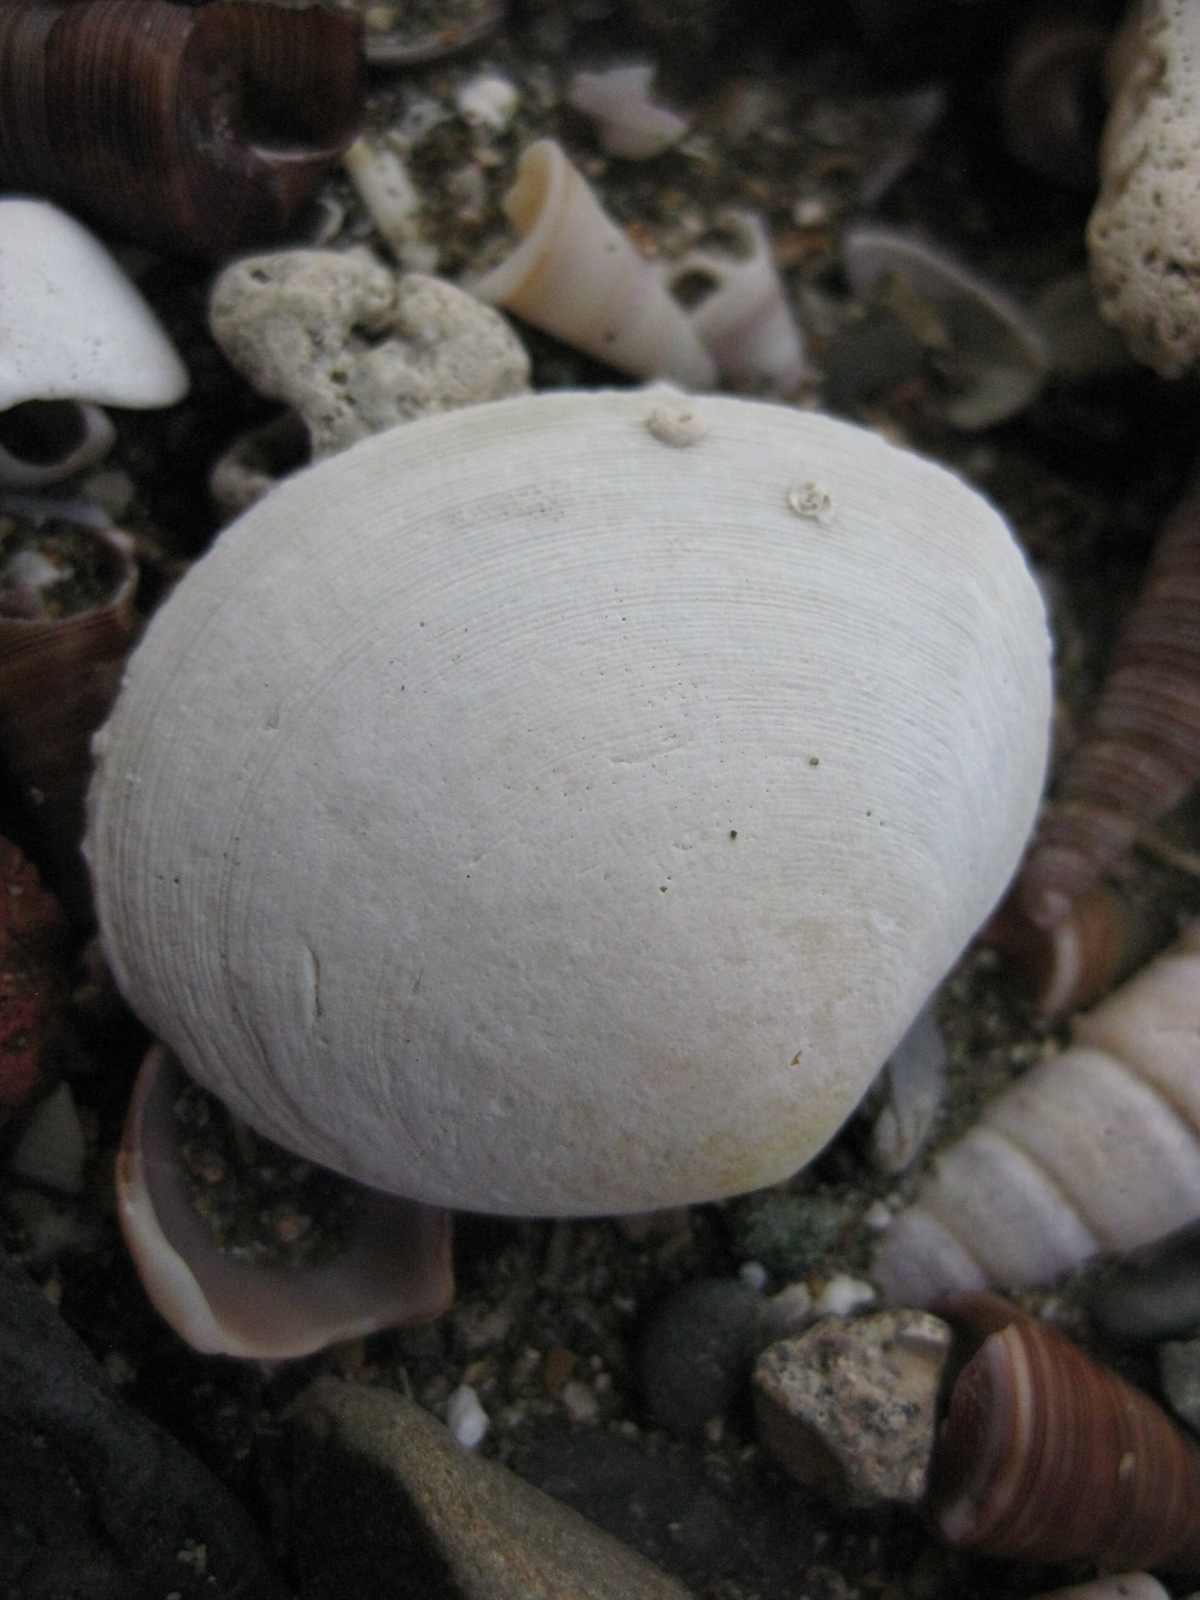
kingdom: Animalia
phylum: Mollusca
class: Bivalvia
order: Cardiida
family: Tellinidae
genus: Pseudarcopagia
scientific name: Pseudarcopagia disculus
